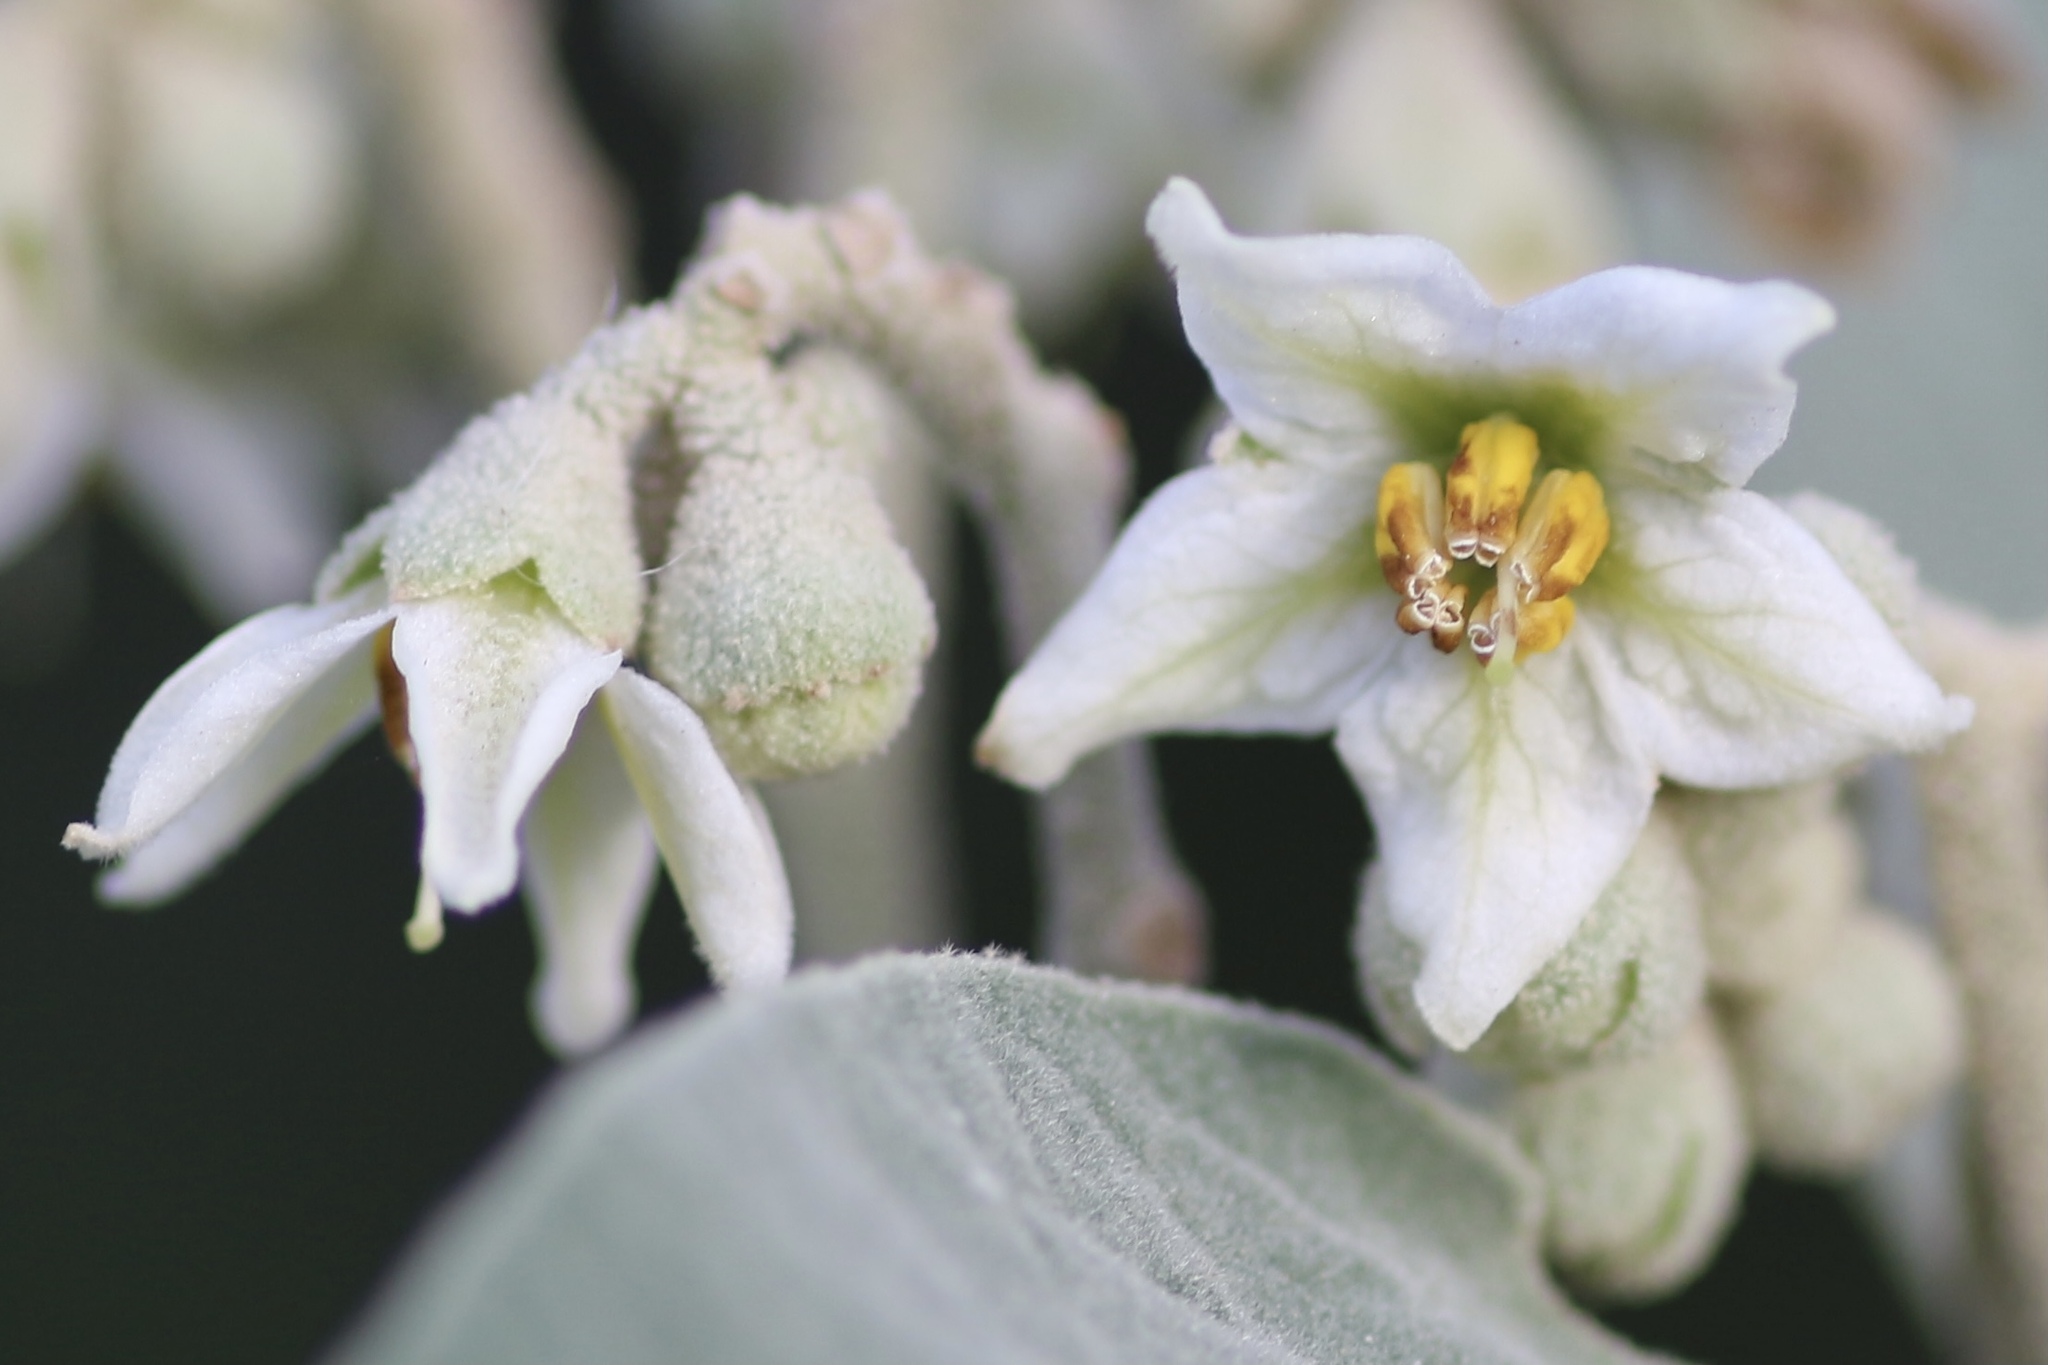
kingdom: Plantae
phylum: Tracheophyta
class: Magnoliopsida
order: Solanales
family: Solanaceae
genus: Solanum
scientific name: Solanum erianthum
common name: Tobacco-tree
